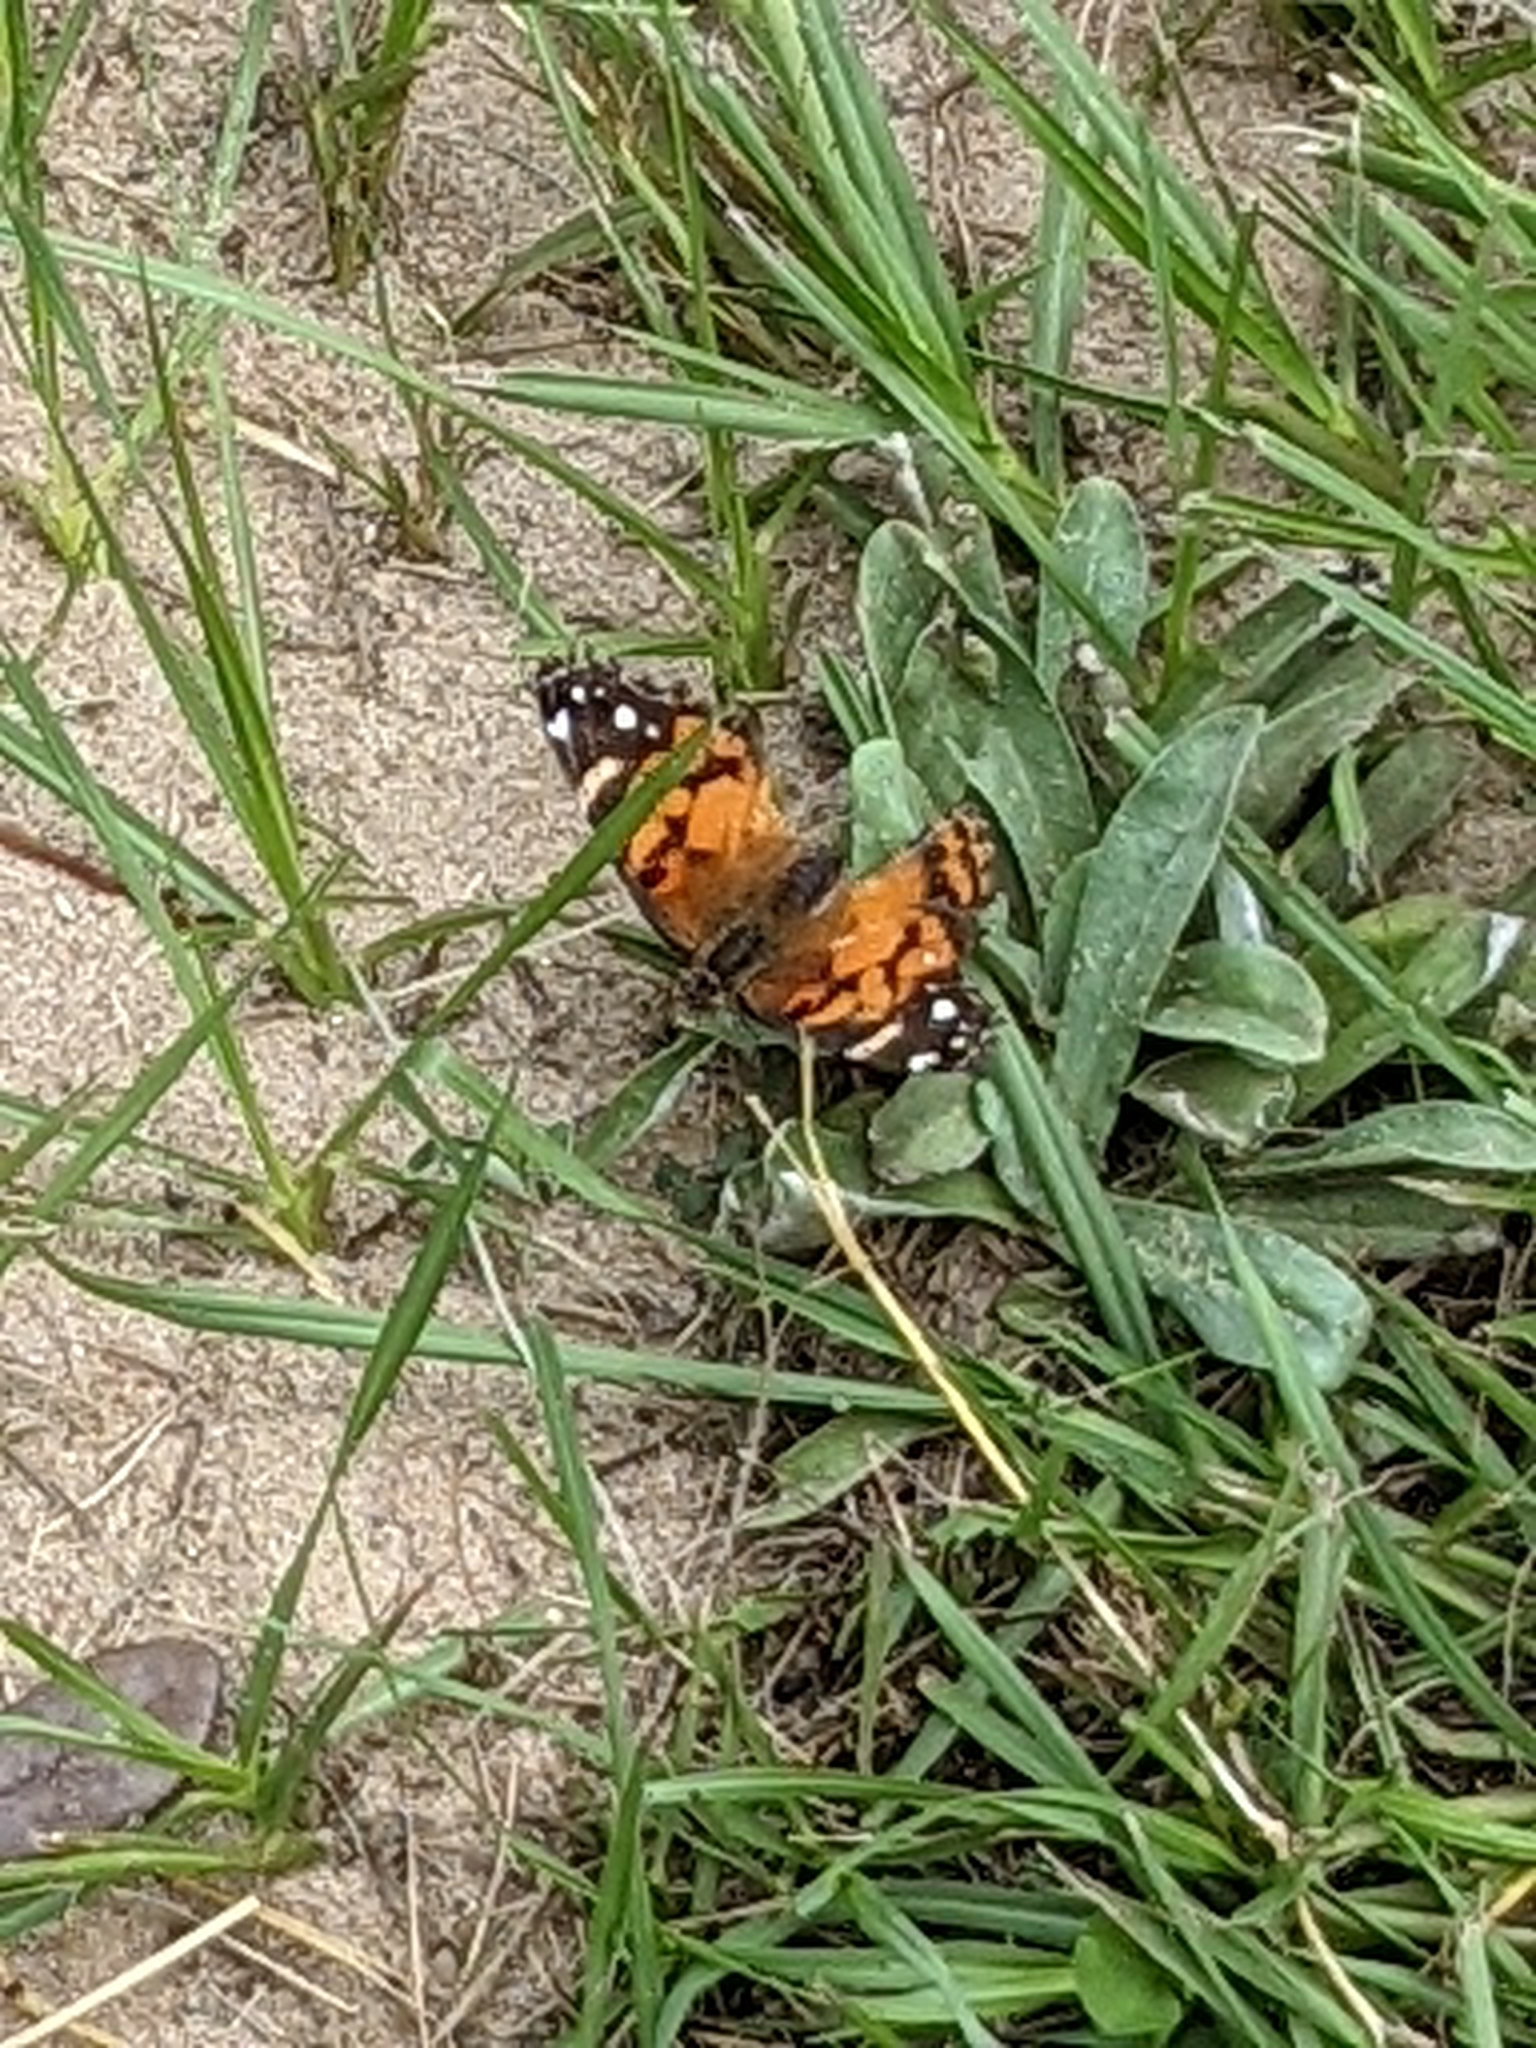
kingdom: Animalia
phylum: Arthropoda
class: Insecta
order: Lepidoptera
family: Nymphalidae
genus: Vanessa
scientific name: Vanessa virginiensis
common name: American lady
